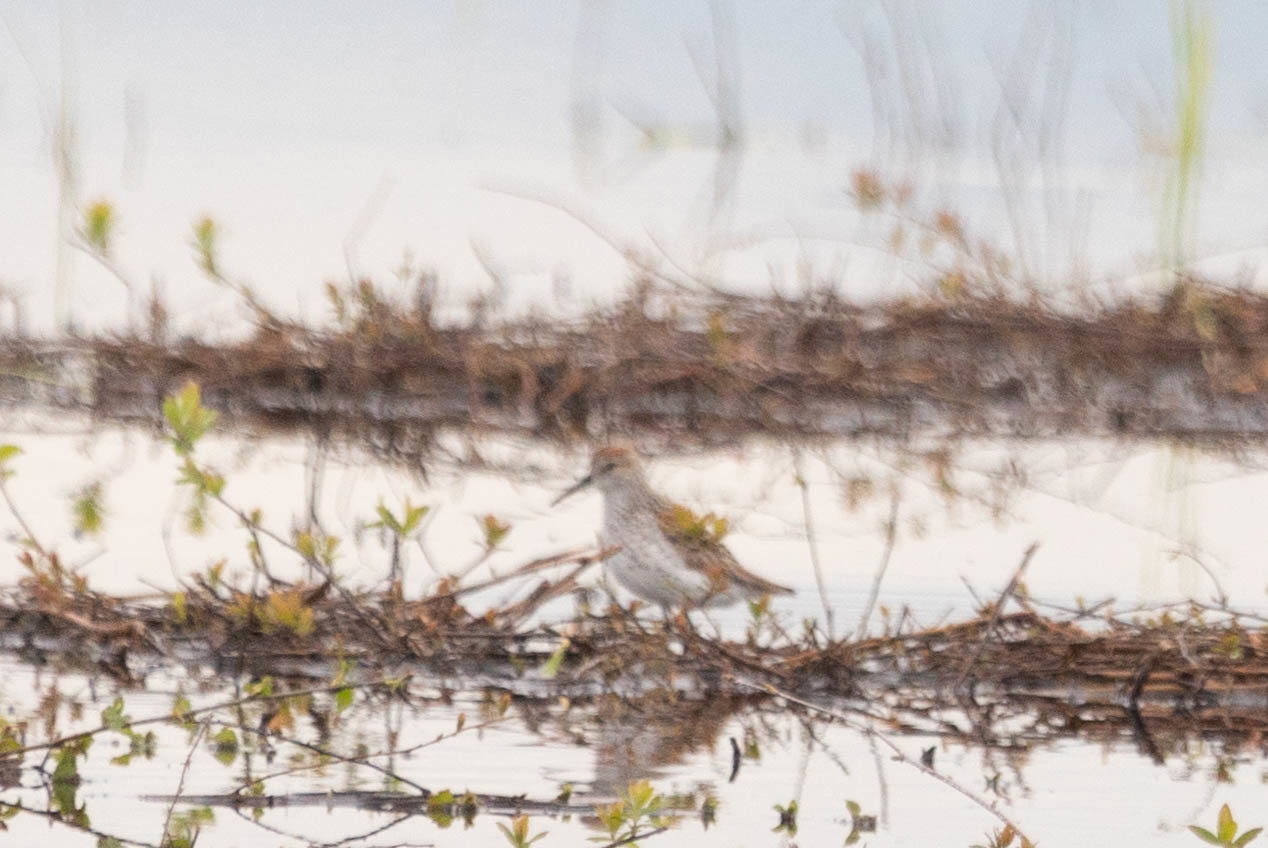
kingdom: Animalia
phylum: Chordata
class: Aves
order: Charadriiformes
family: Scolopacidae
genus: Calidris
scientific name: Calidris mauri
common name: Western sandpiper
